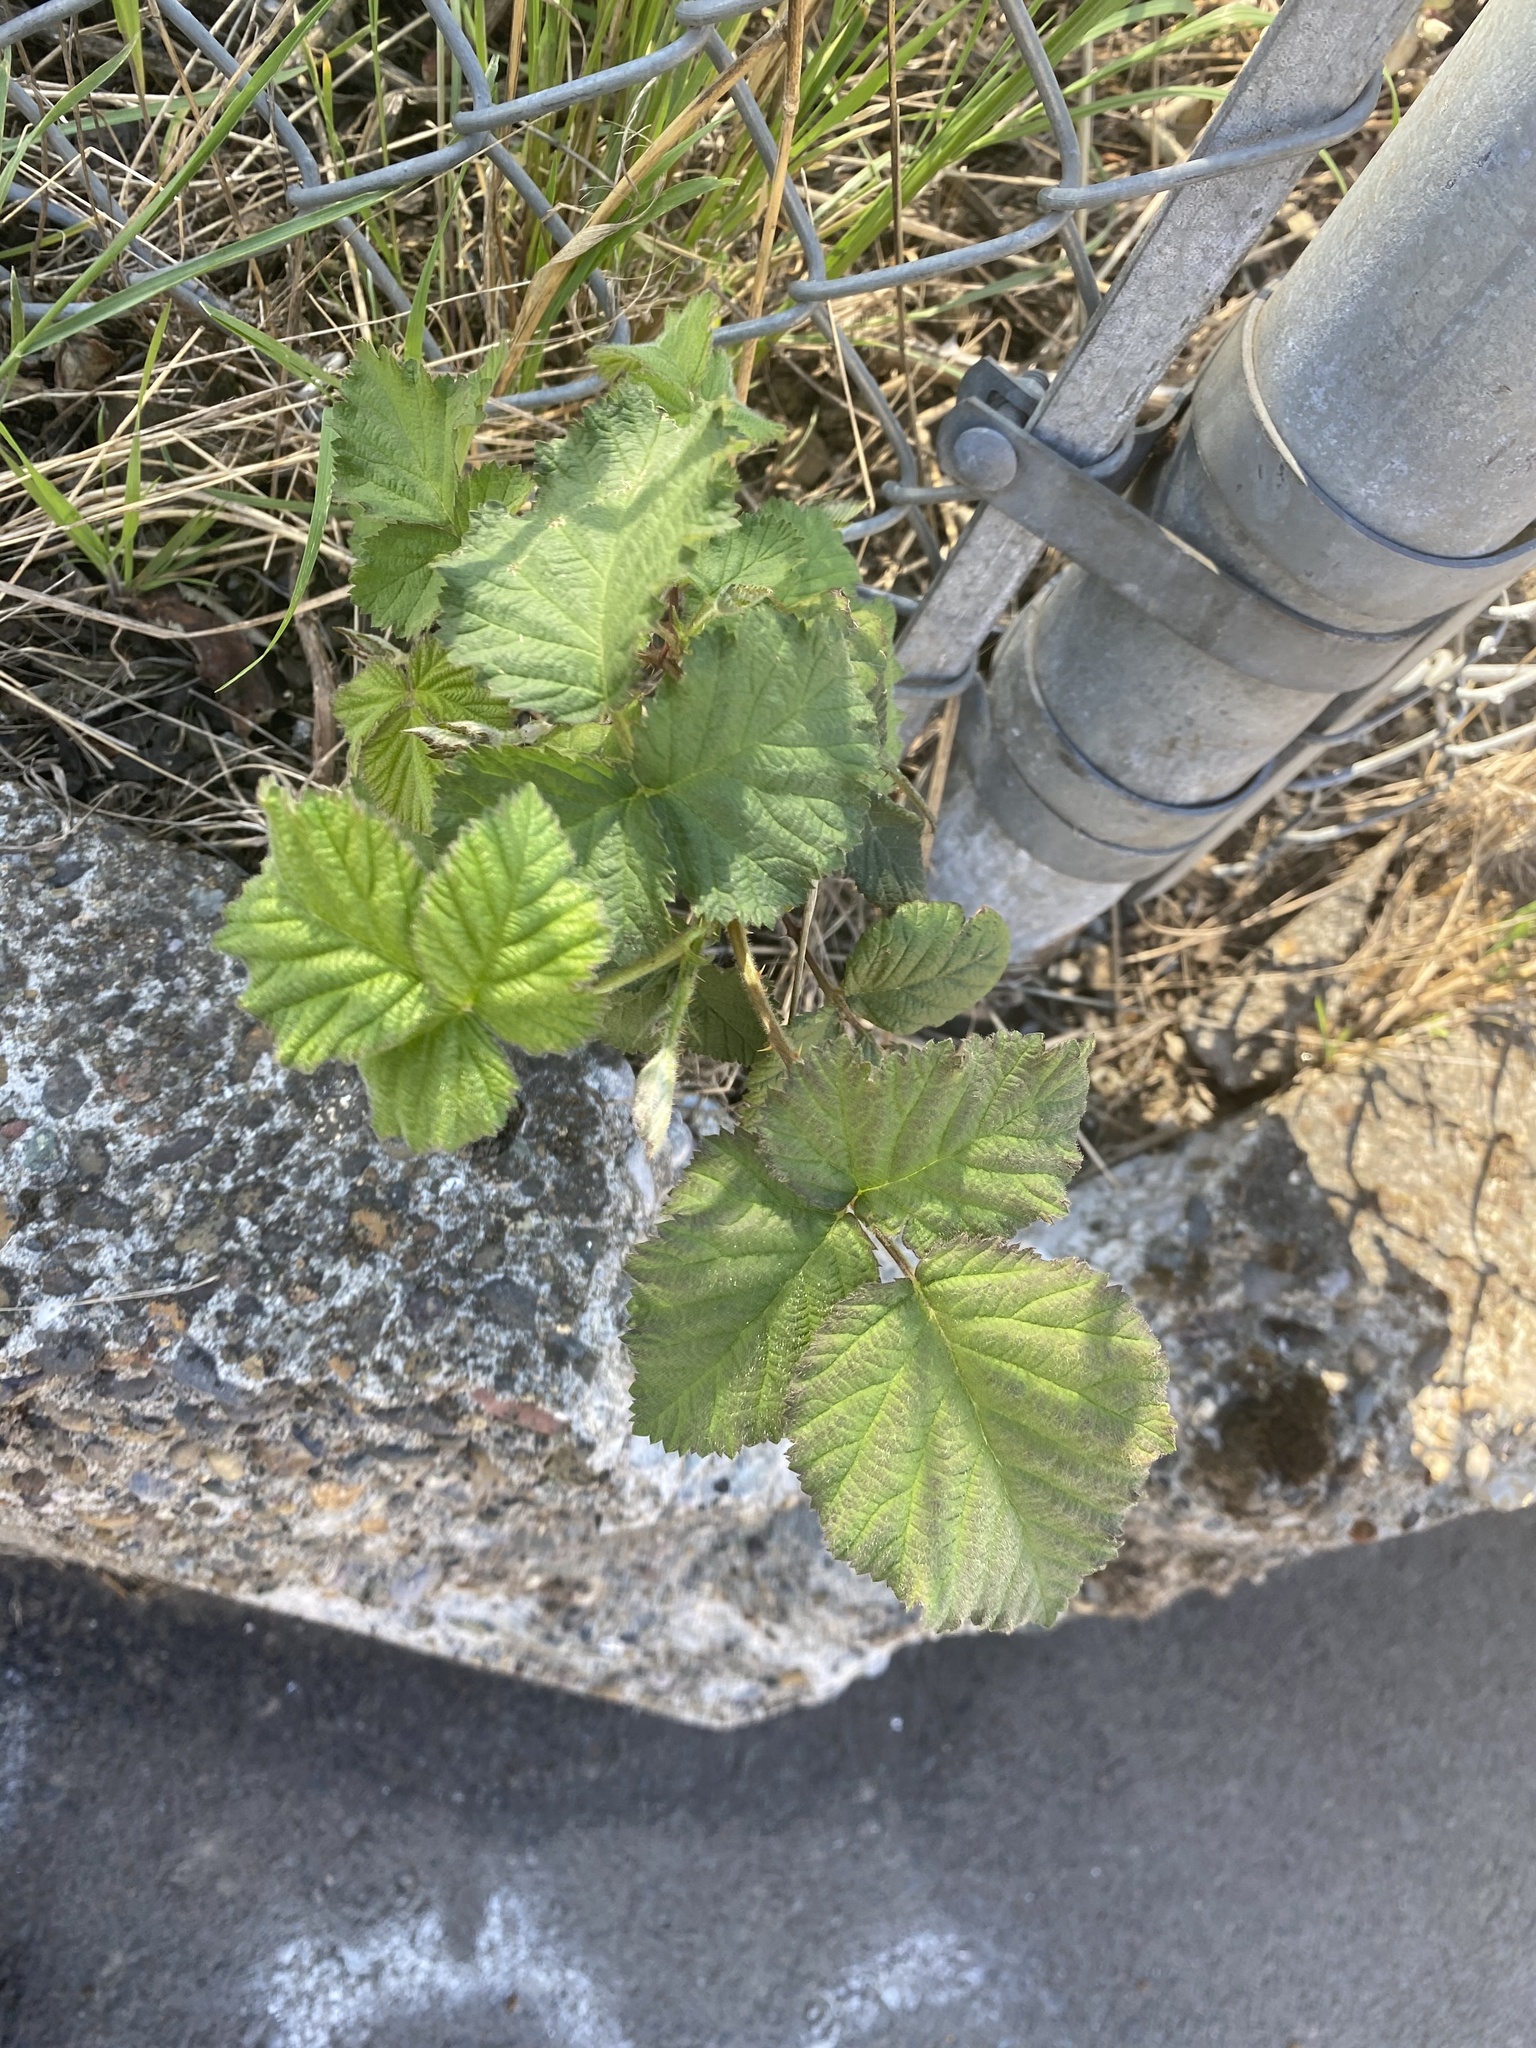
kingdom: Plantae
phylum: Tracheophyta
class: Magnoliopsida
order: Rosales
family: Rosaceae
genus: Rubus
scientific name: Rubus bifrons
